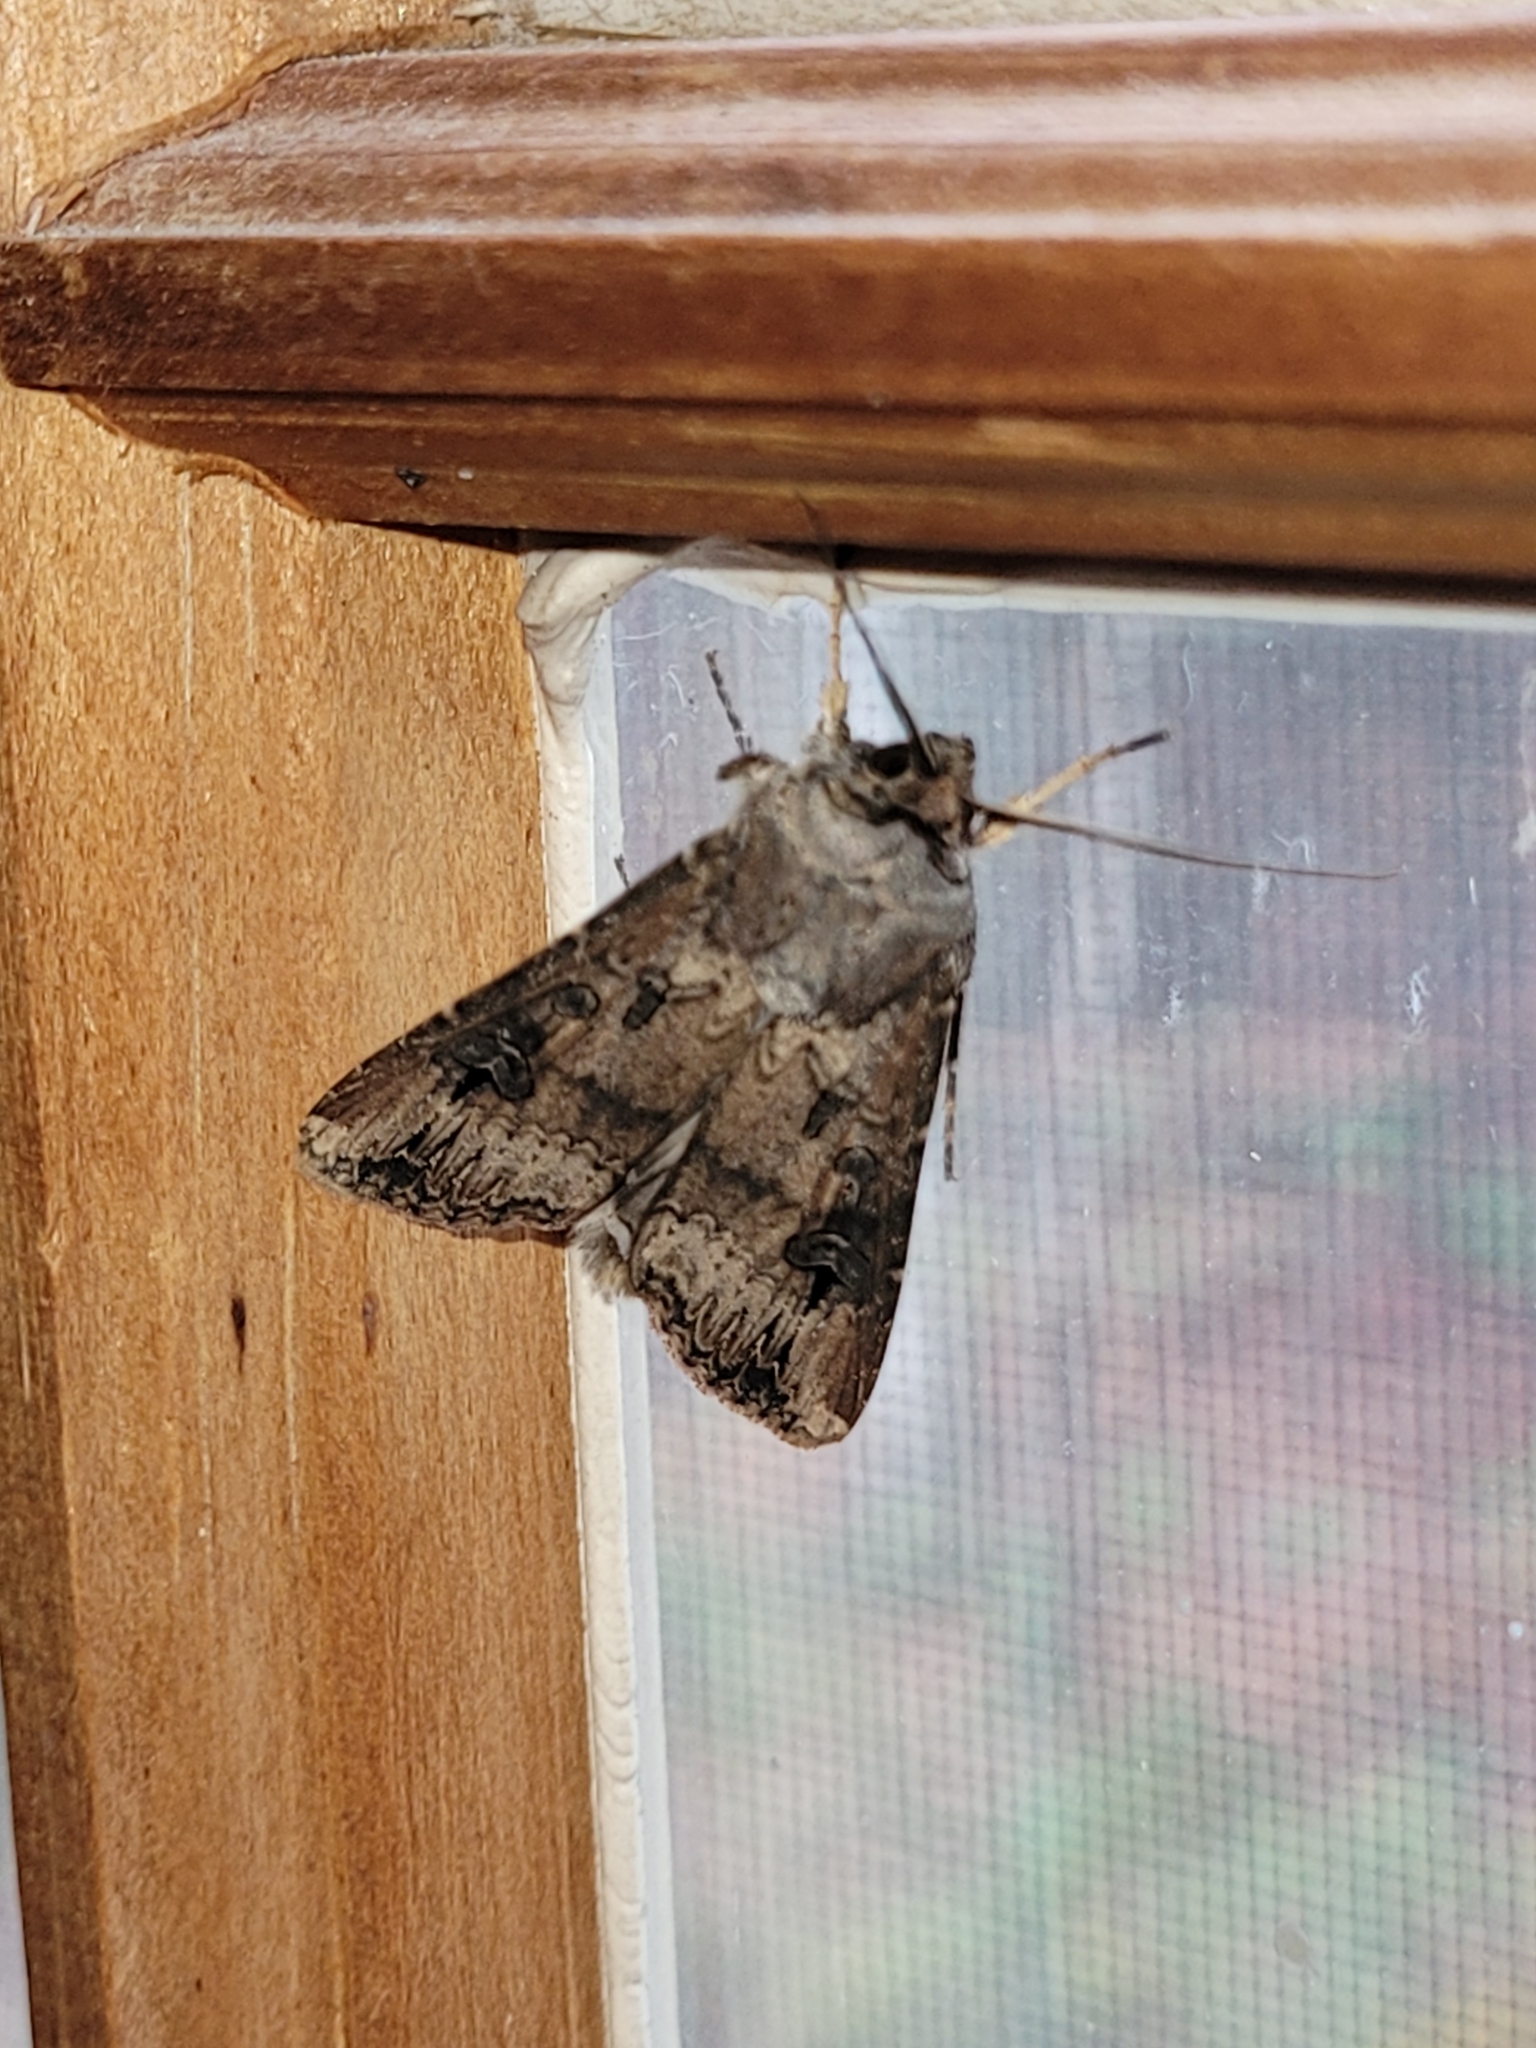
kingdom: Animalia
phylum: Arthropoda
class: Insecta
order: Lepidoptera
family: Noctuidae
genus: Agrotis
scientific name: Agrotis ipsilon
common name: Dark sword-grass
